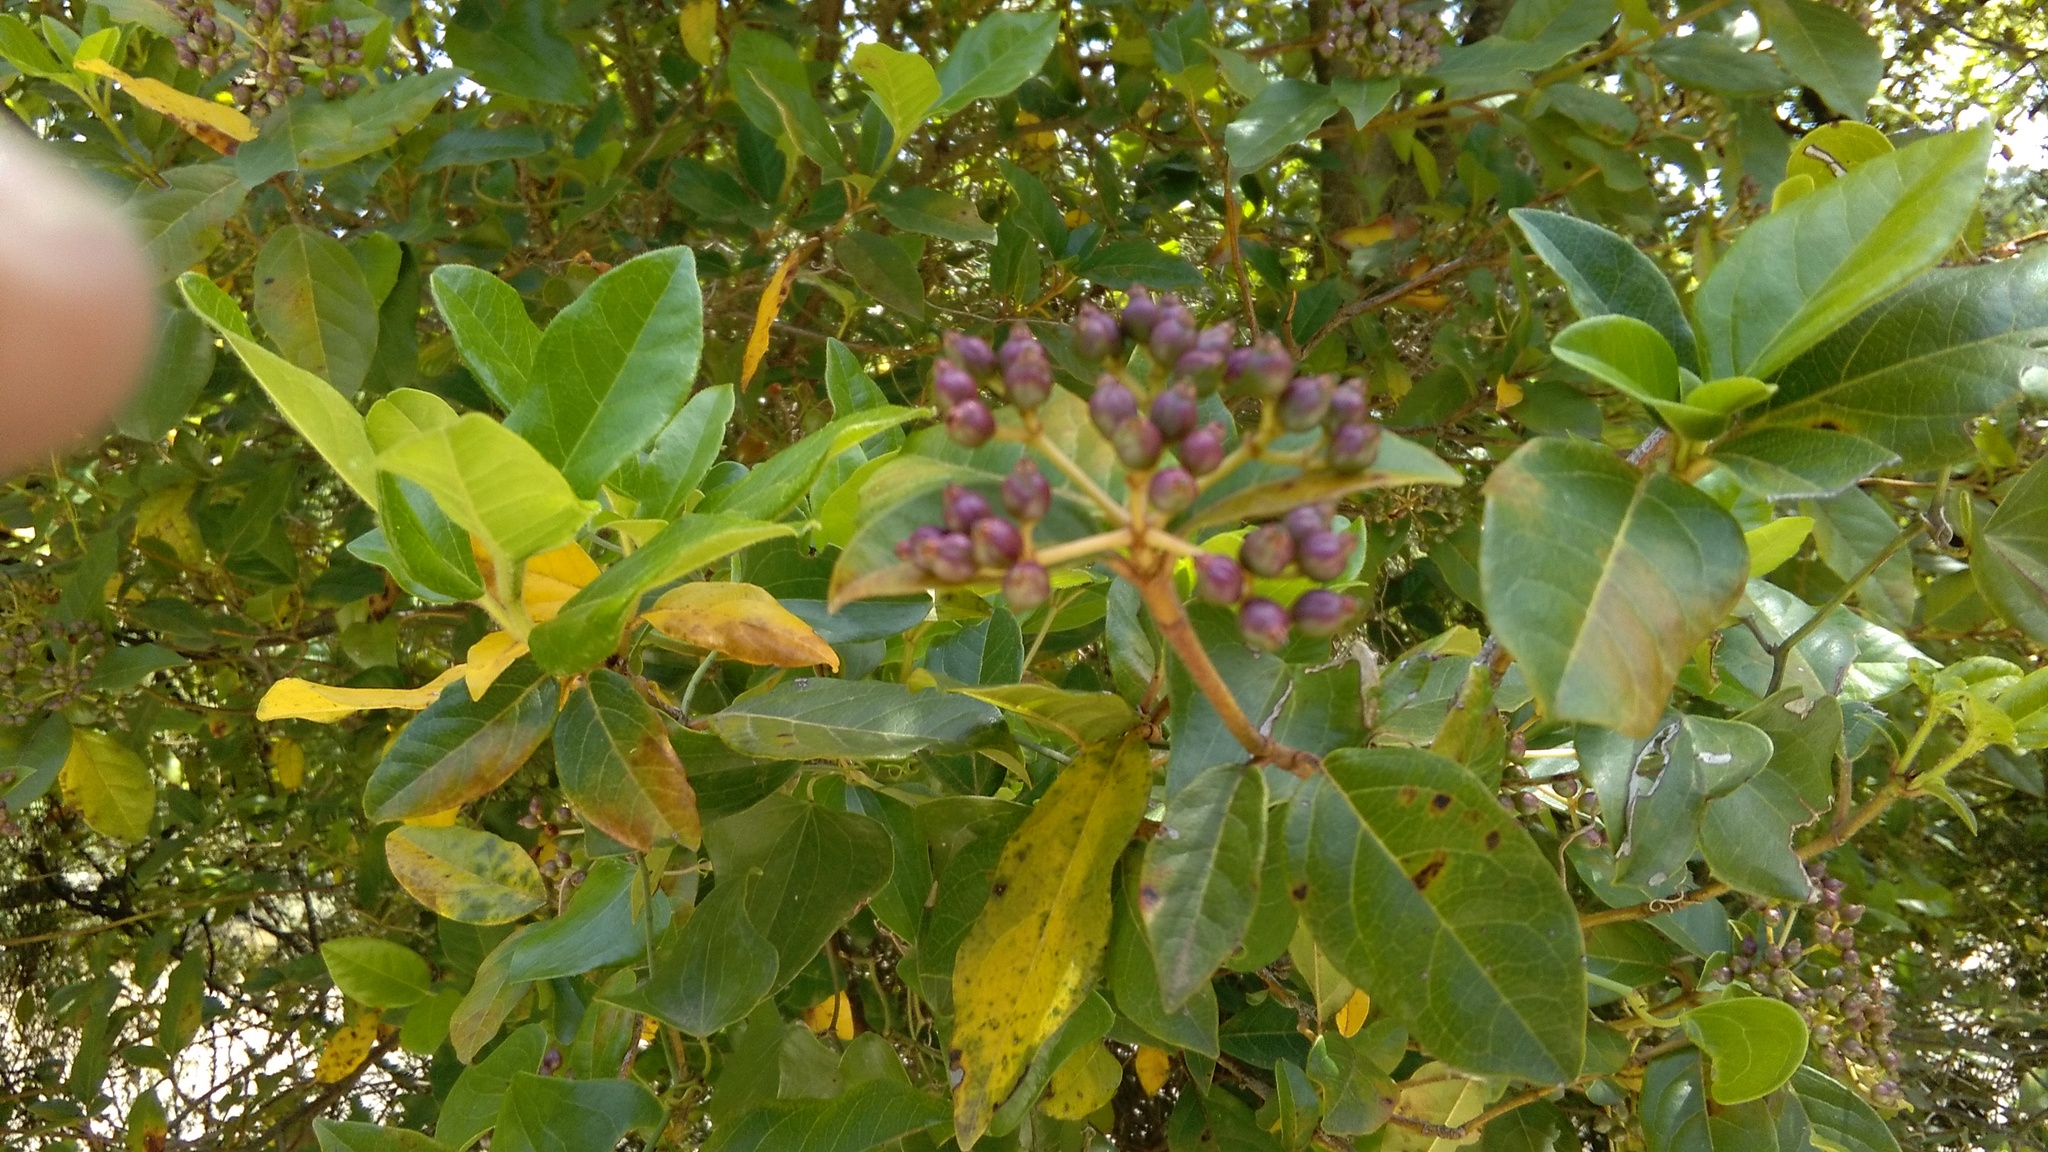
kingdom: Plantae
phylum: Tracheophyta
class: Magnoliopsida
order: Dipsacales
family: Viburnaceae
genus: Viburnum
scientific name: Viburnum tinus
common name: Laurustinus
